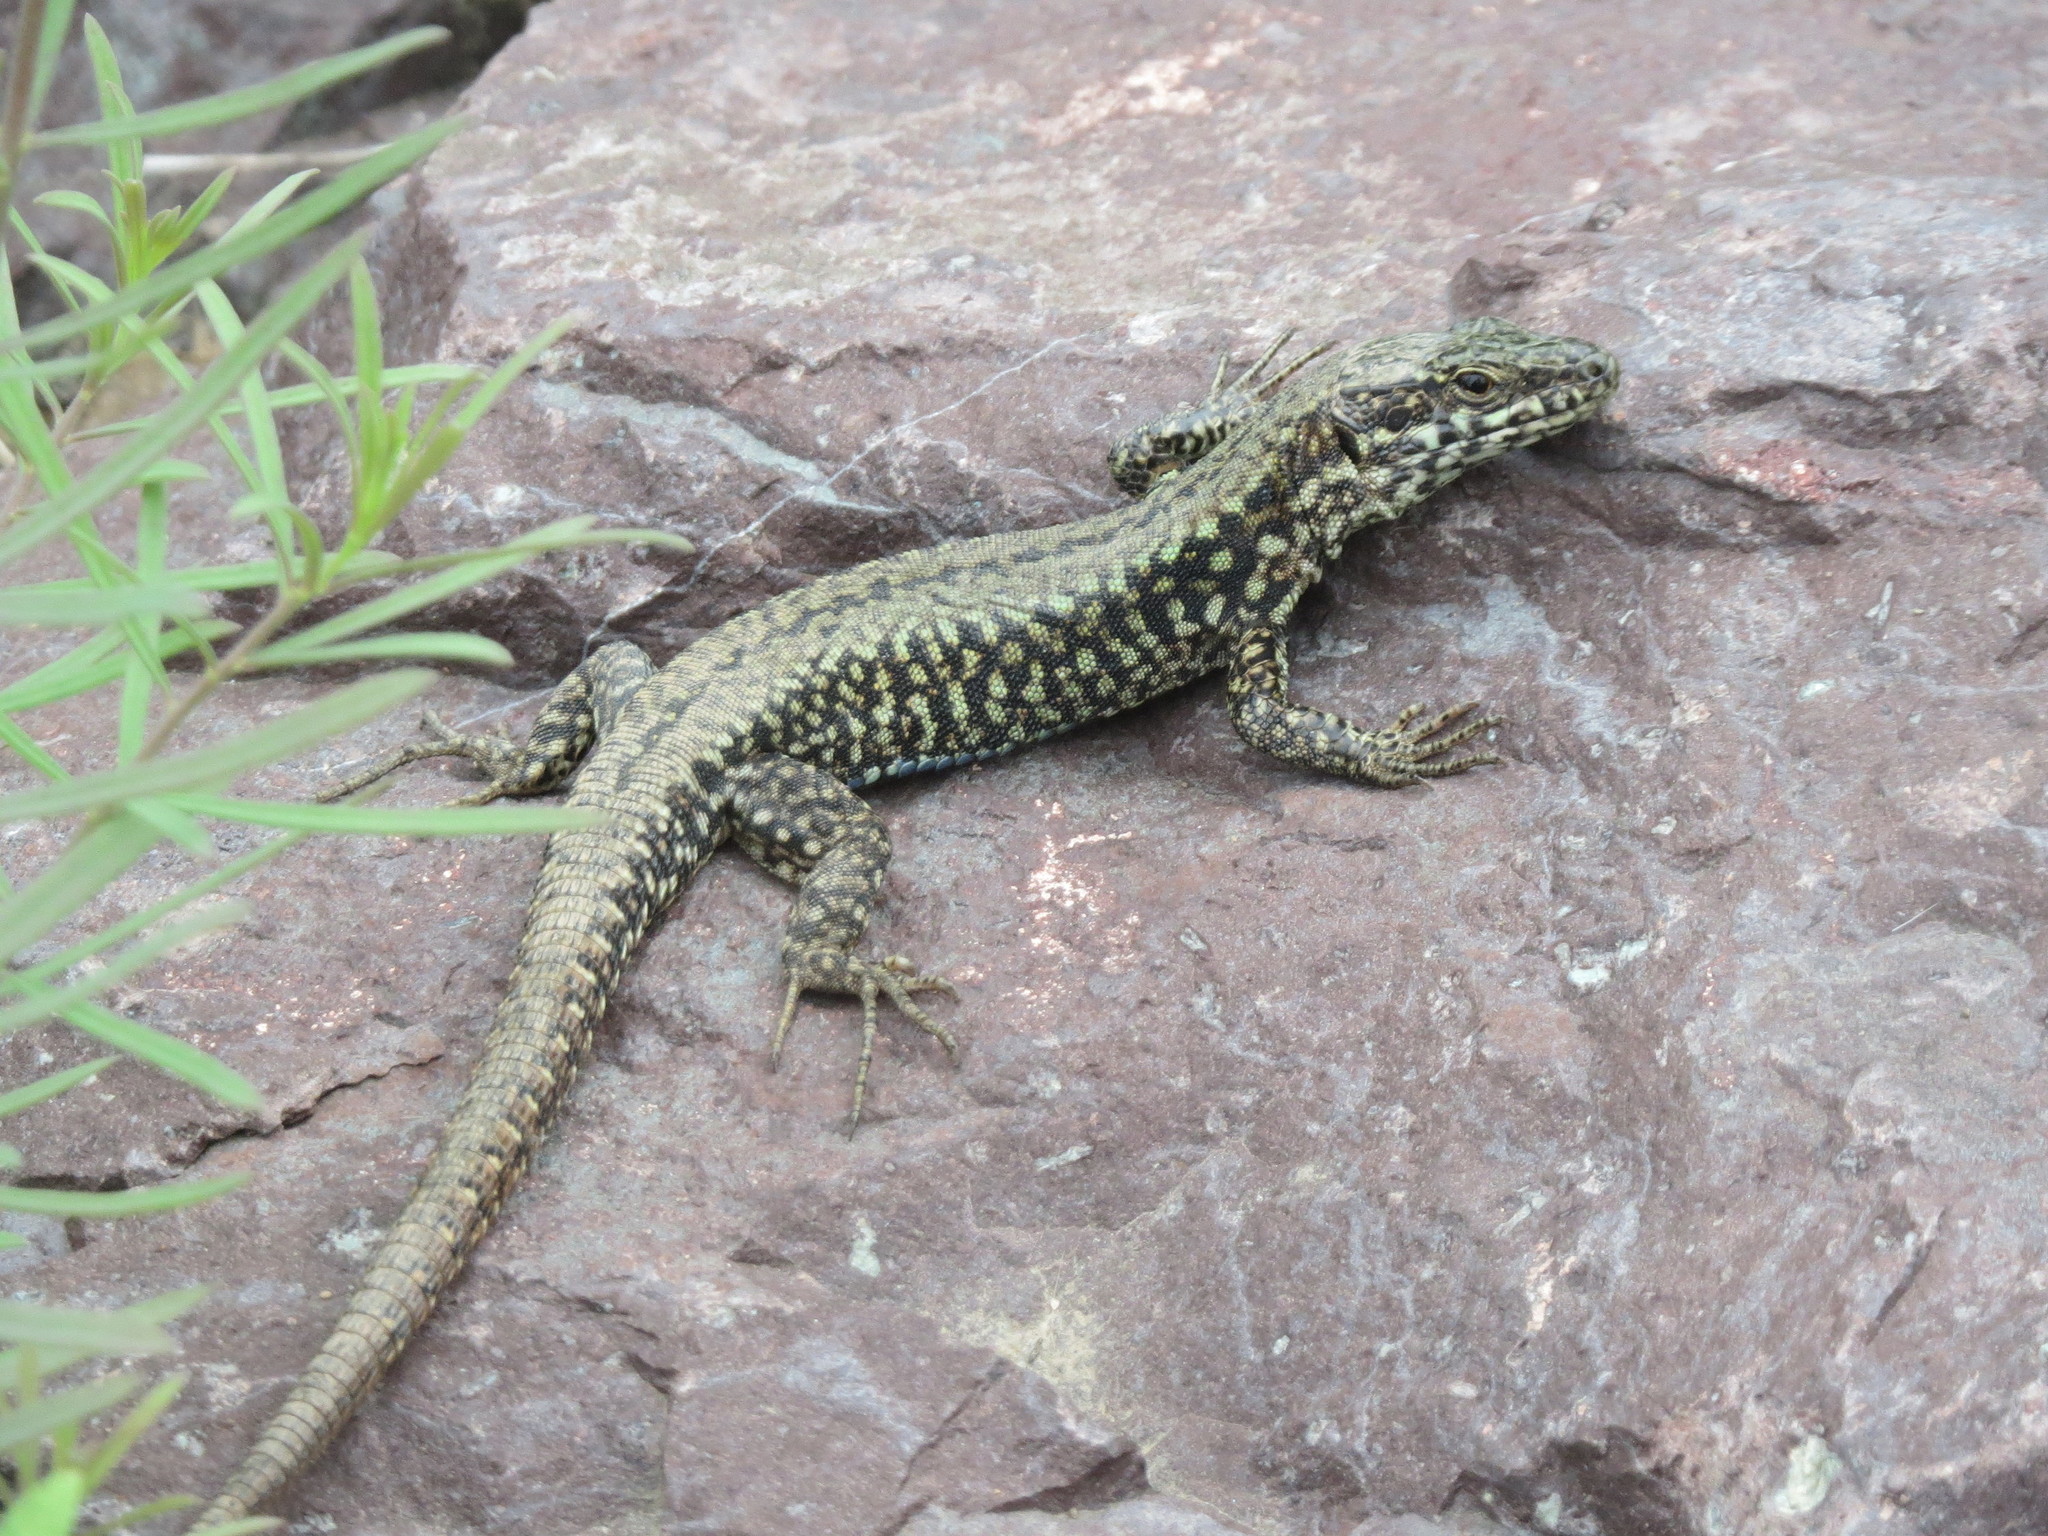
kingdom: Animalia
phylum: Chordata
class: Squamata
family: Lacertidae
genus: Podarcis
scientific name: Podarcis muralis
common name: Common wall lizard
